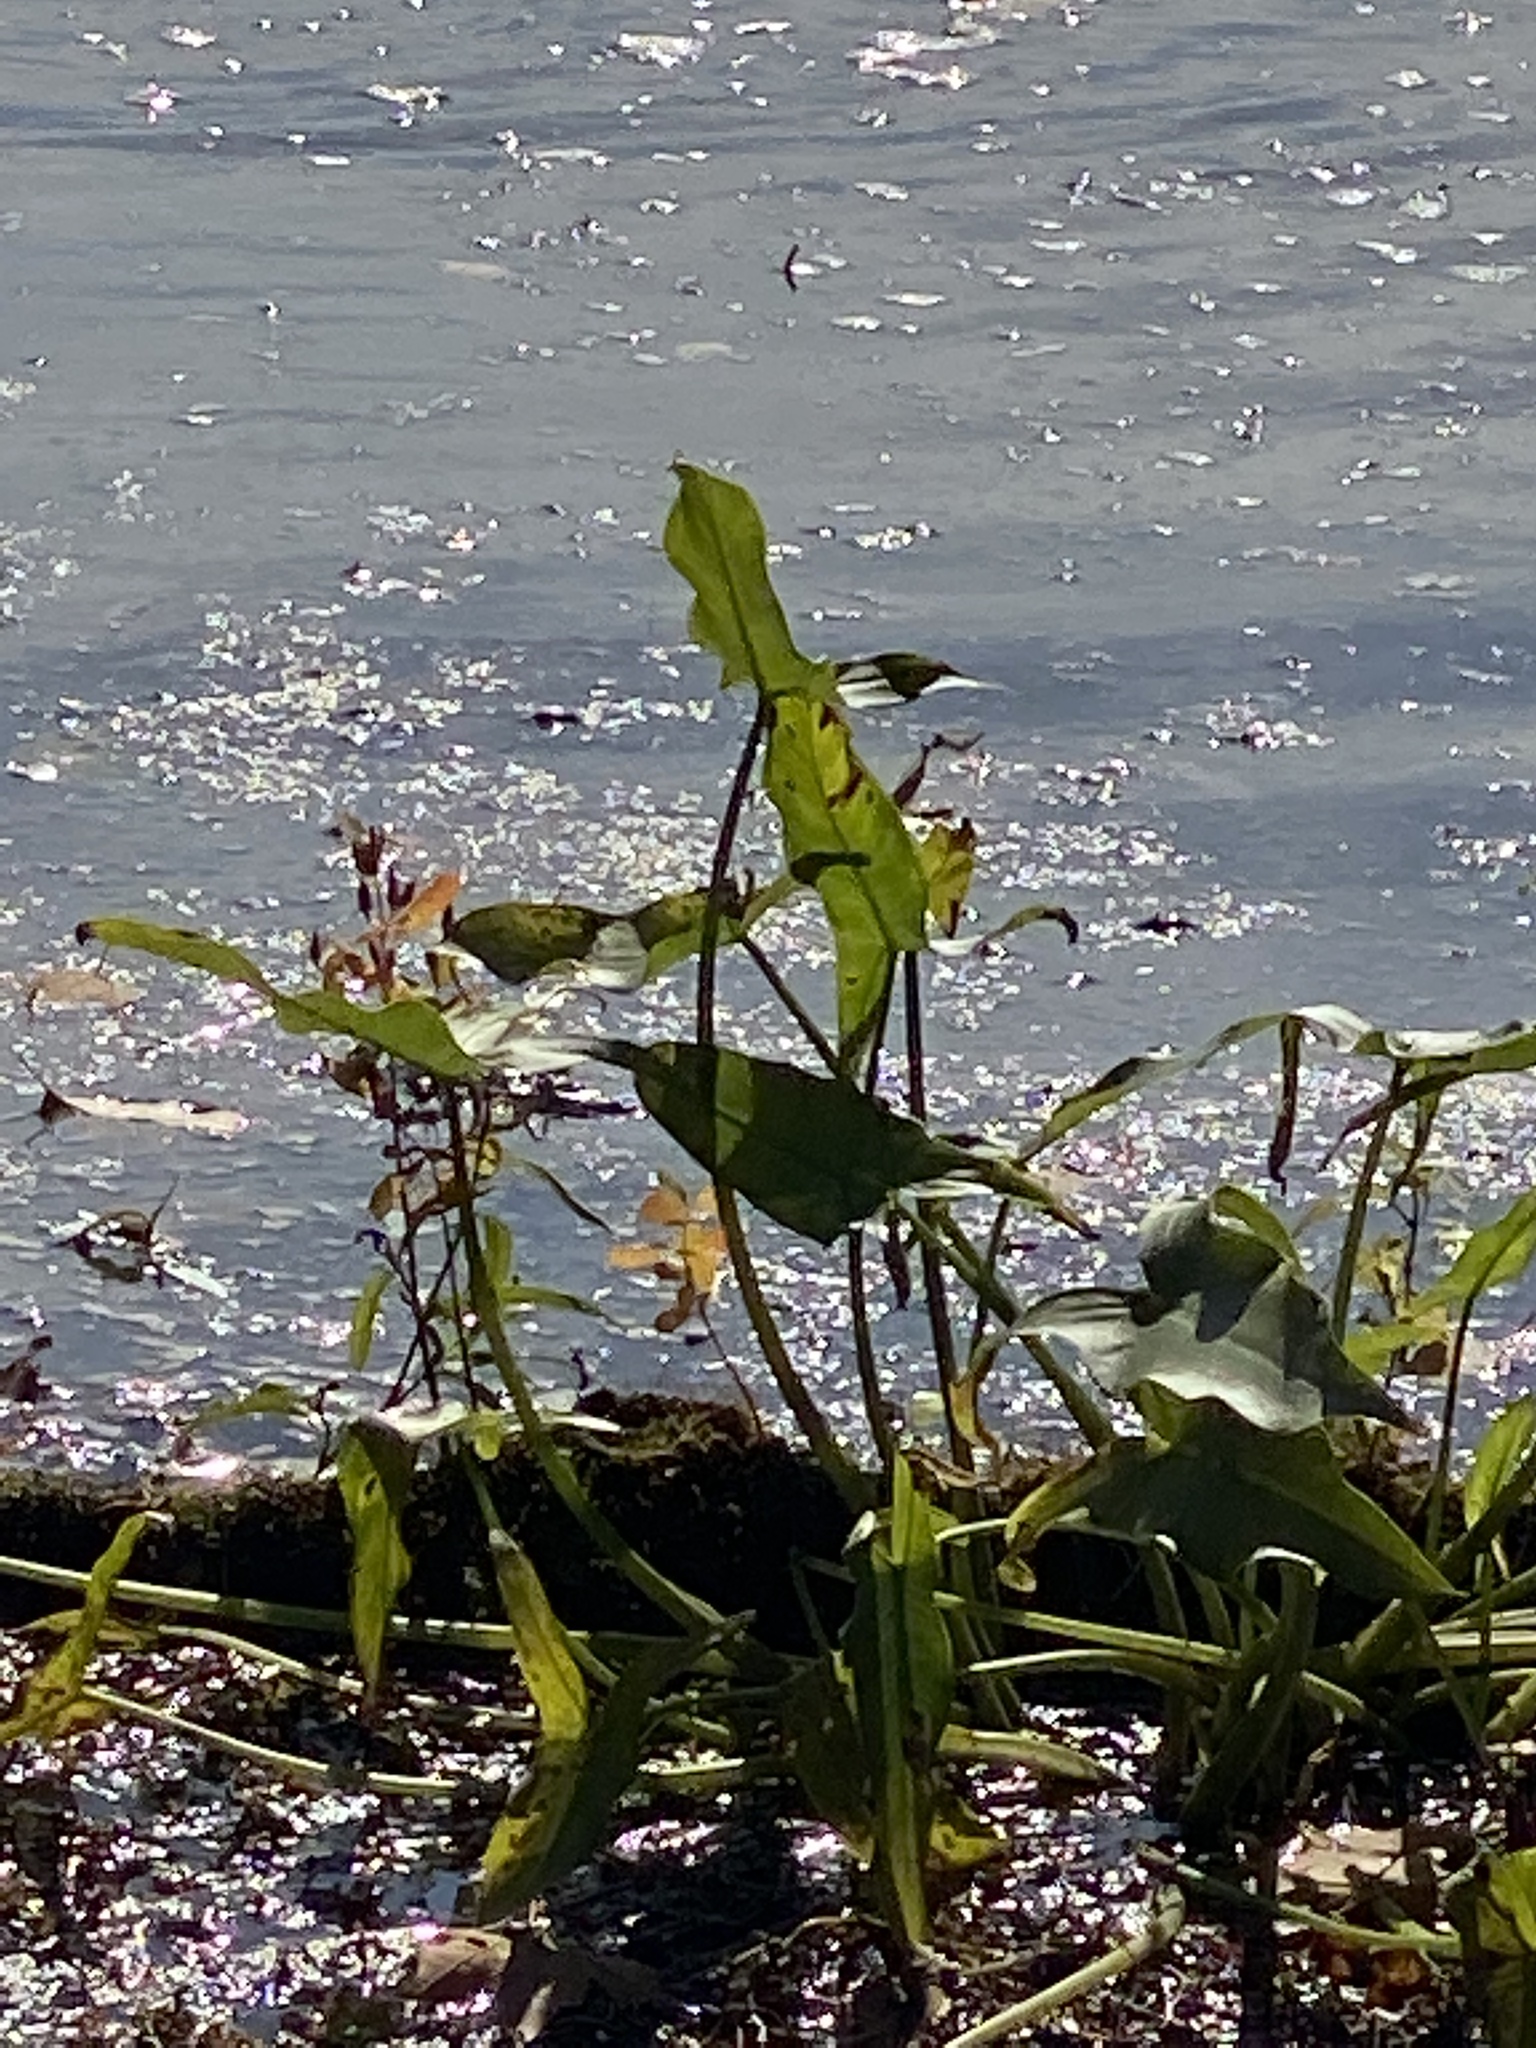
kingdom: Plantae
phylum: Tracheophyta
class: Liliopsida
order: Alismatales
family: Araceae
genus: Peltandra
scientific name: Peltandra virginica
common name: Arrow arum
